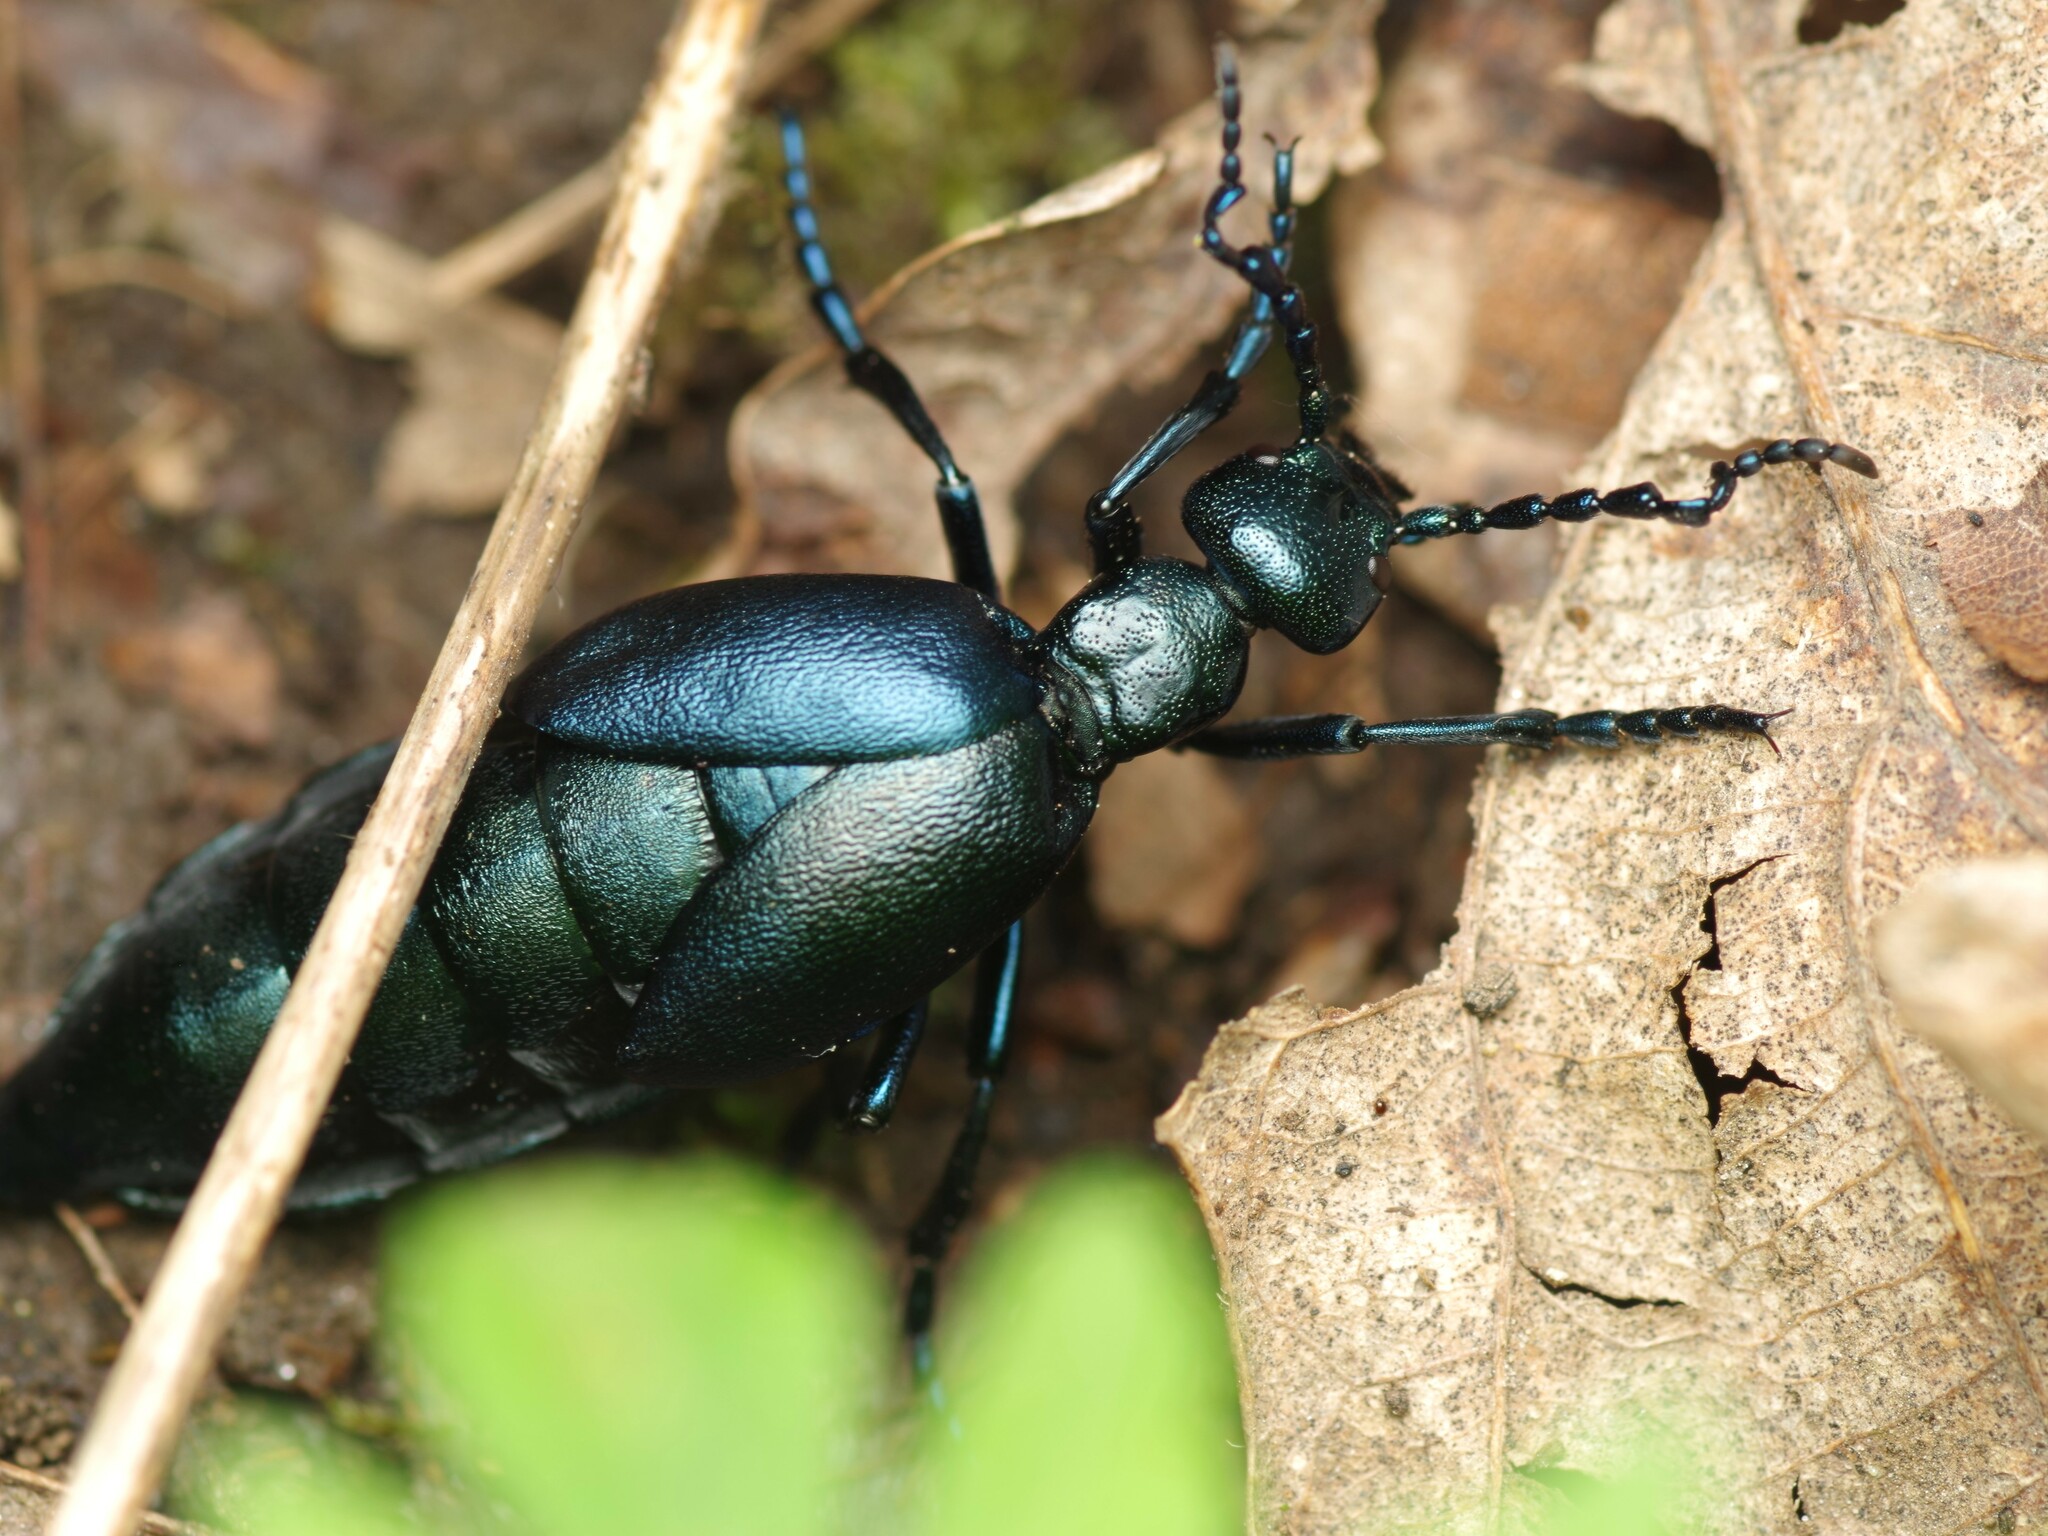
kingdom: Animalia
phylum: Arthropoda
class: Insecta
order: Coleoptera
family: Meloidae
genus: Meloe
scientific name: Meloe violaceus
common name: Violet oil-beetle
